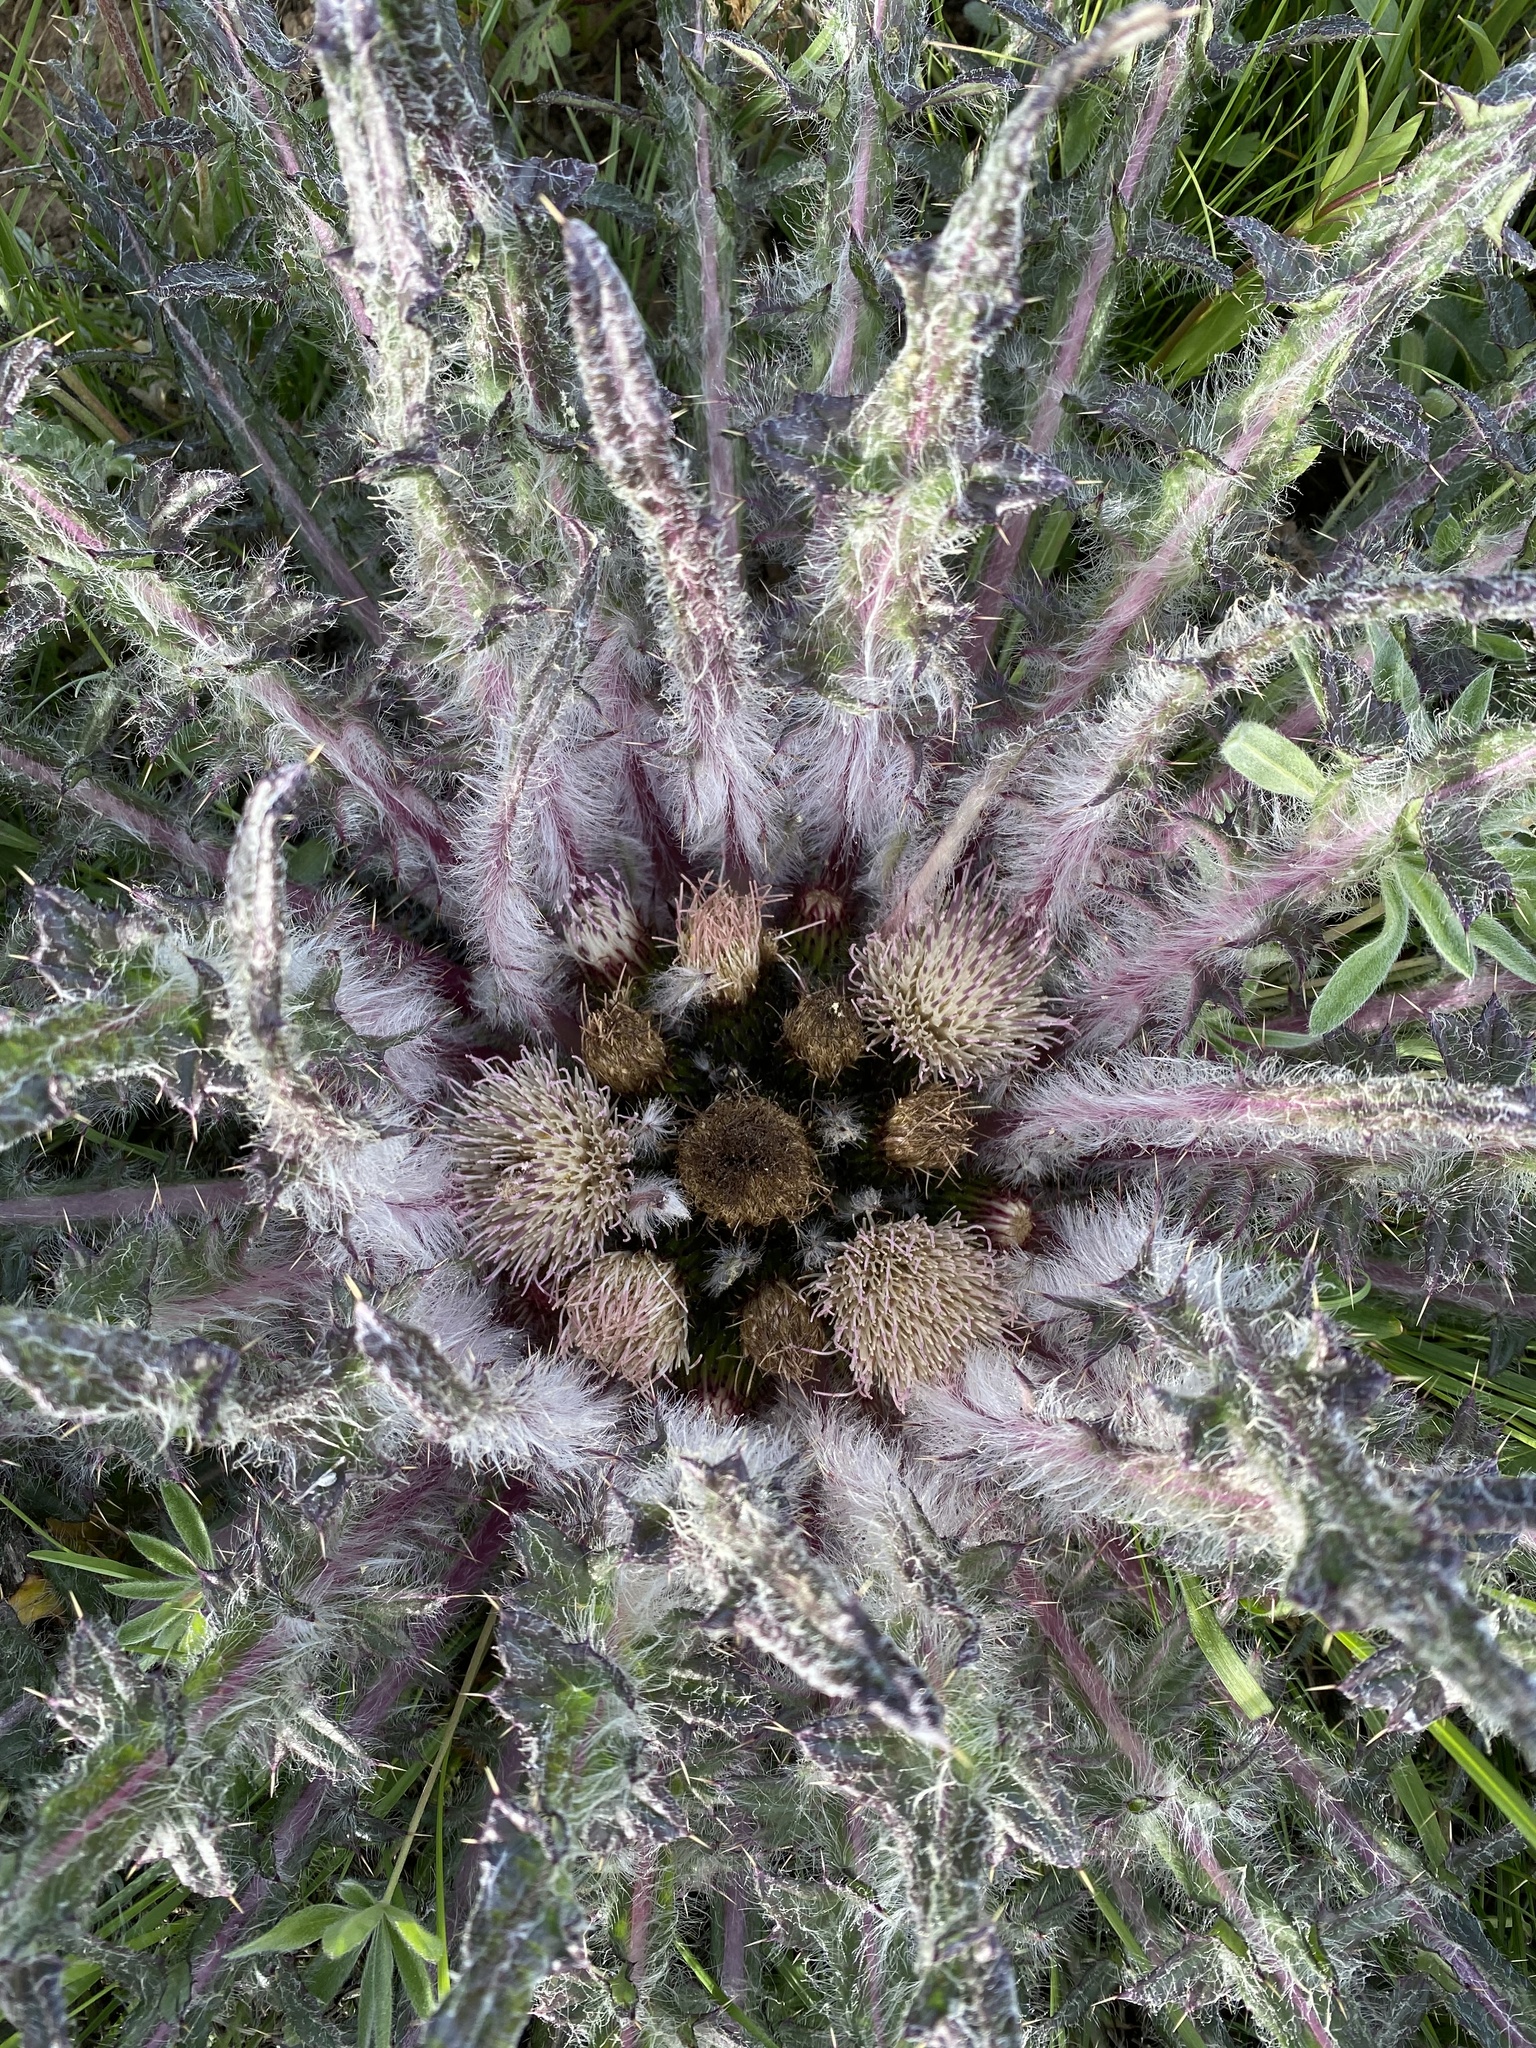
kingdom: Plantae
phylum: Tracheophyta
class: Magnoliopsida
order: Asterales
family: Asteraceae
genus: Cirsium
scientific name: Cirsium scariosum
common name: Meadow thistle
